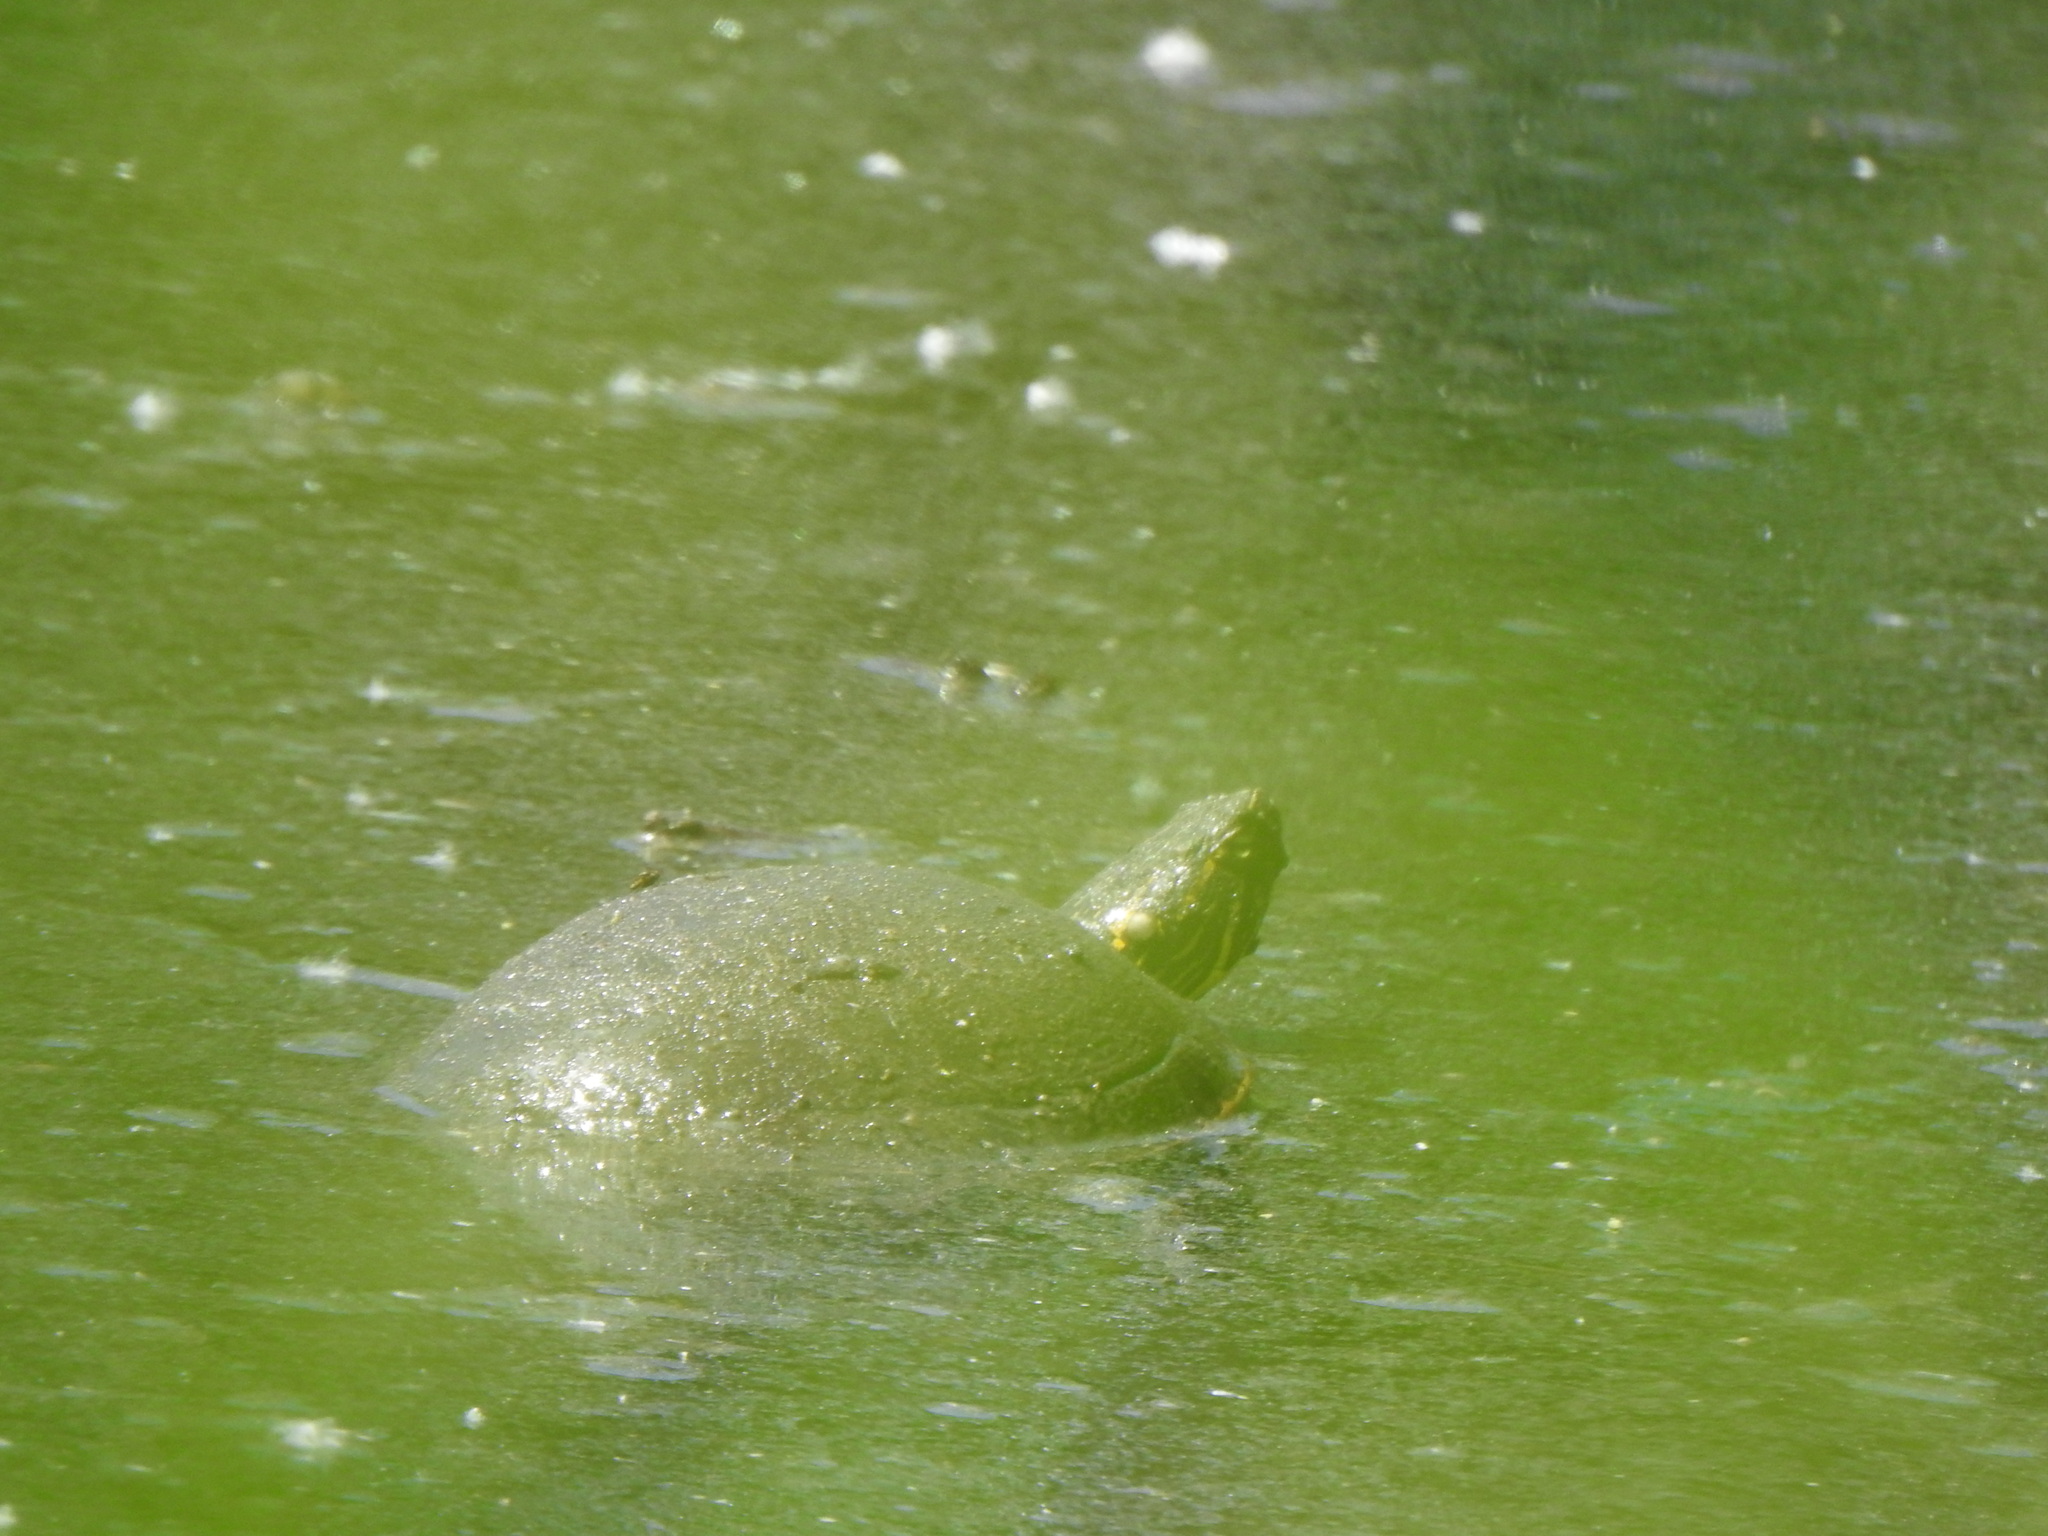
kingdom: Animalia
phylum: Chordata
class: Testudines
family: Emydidae
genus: Chrysemys
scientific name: Chrysemys picta
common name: Painted turtle
